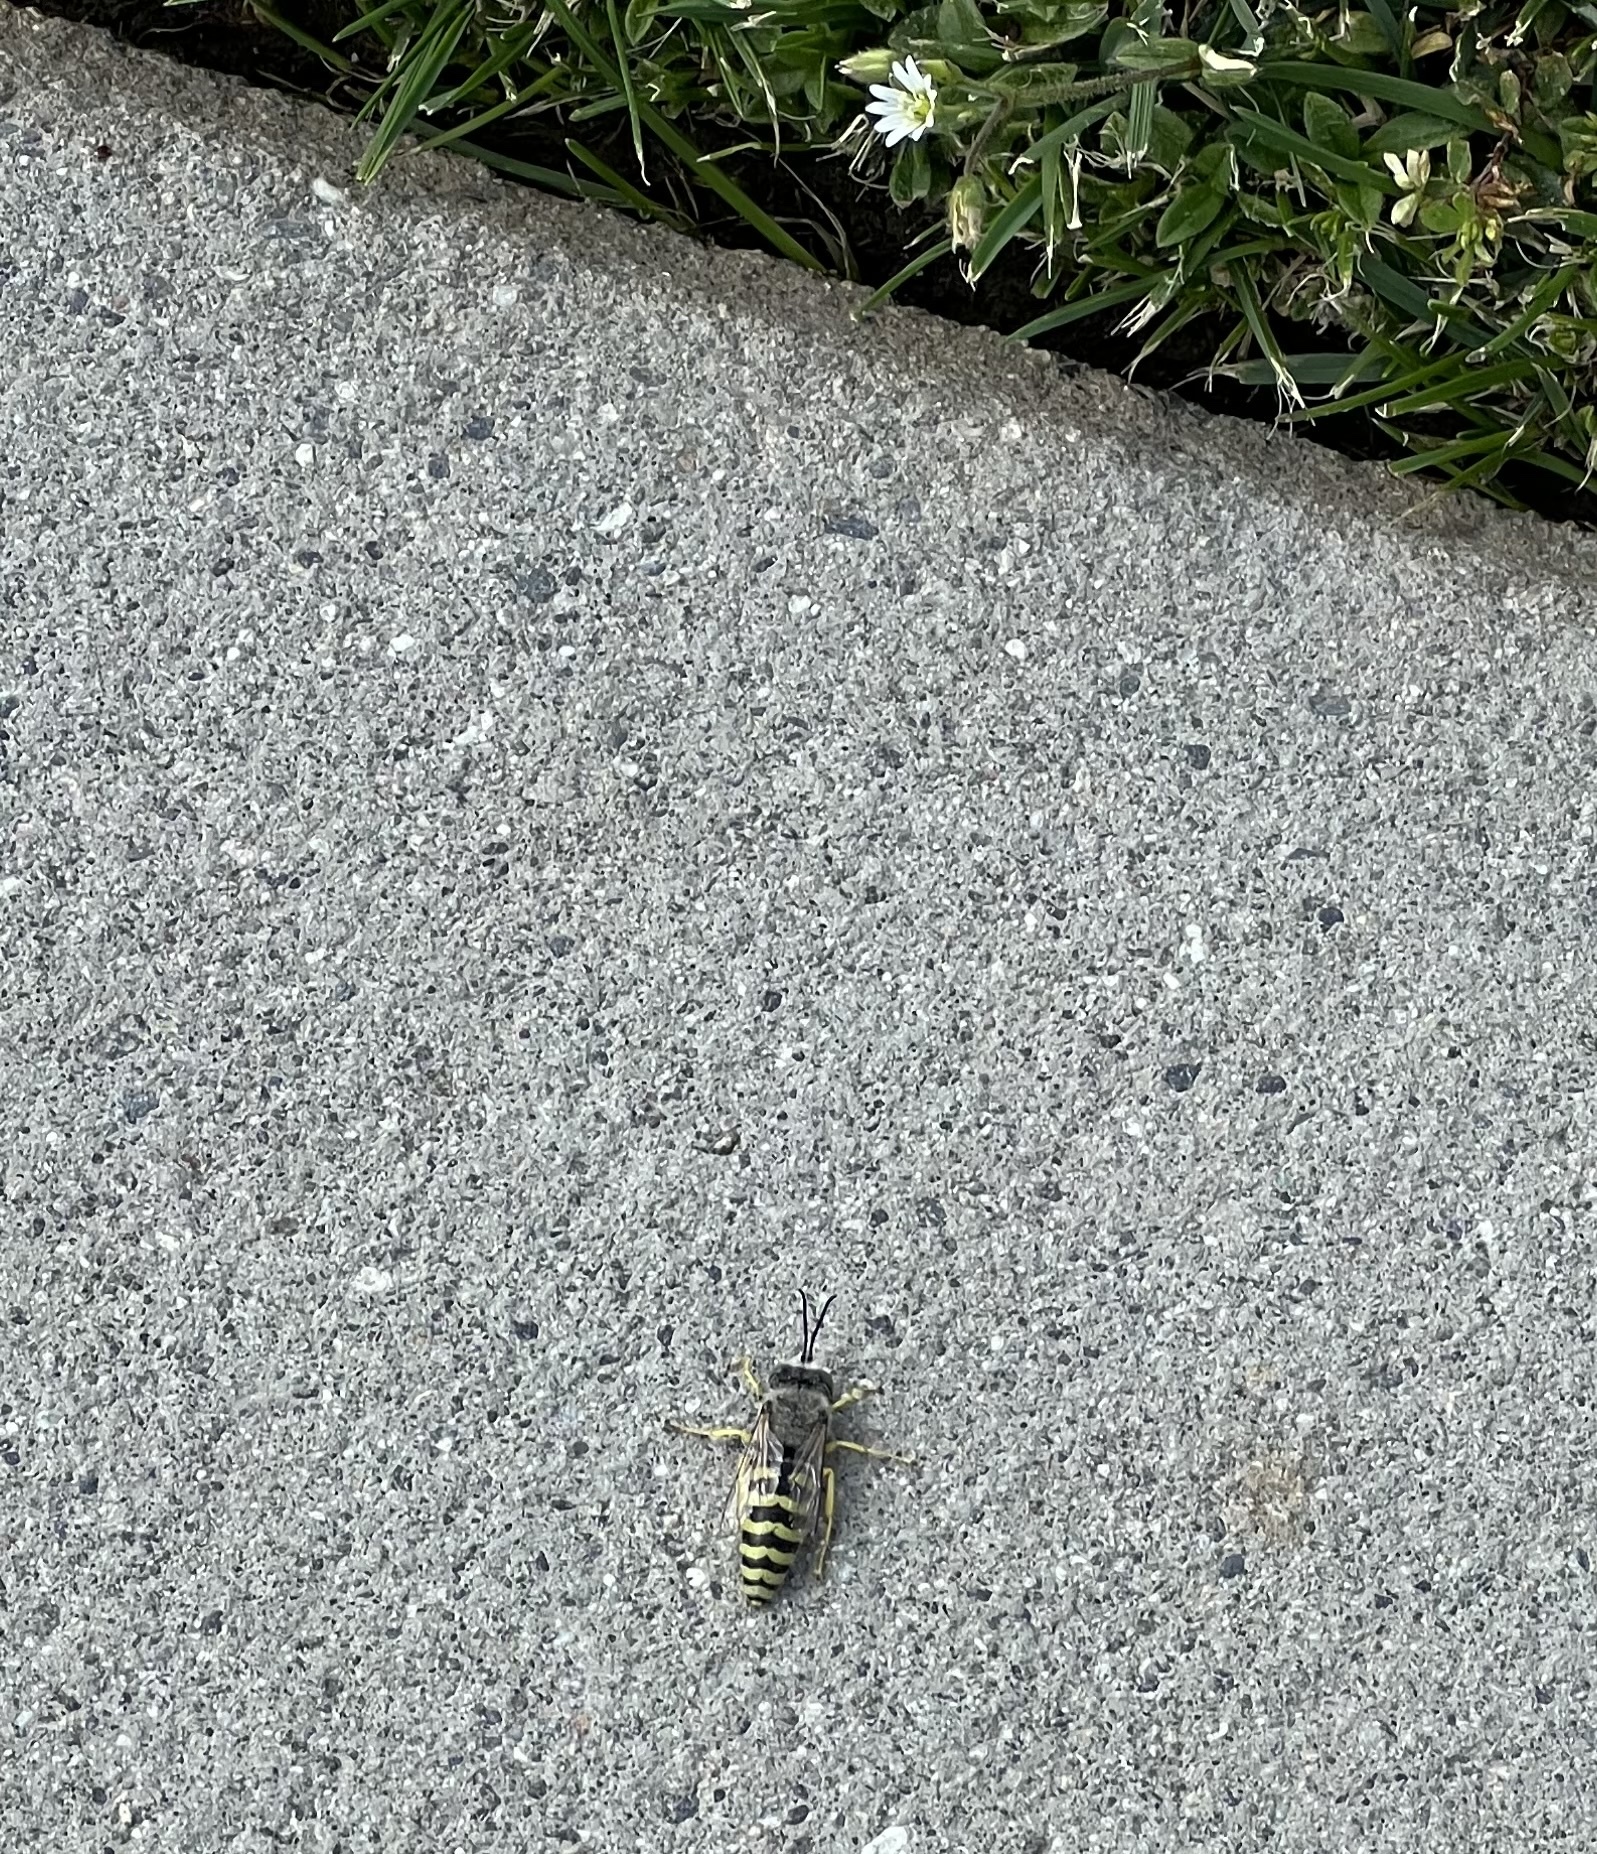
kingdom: Animalia
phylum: Arthropoda
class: Insecta
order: Hymenoptera
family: Crabronidae
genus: Bembix
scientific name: Bembix americana
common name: American sand wasp
